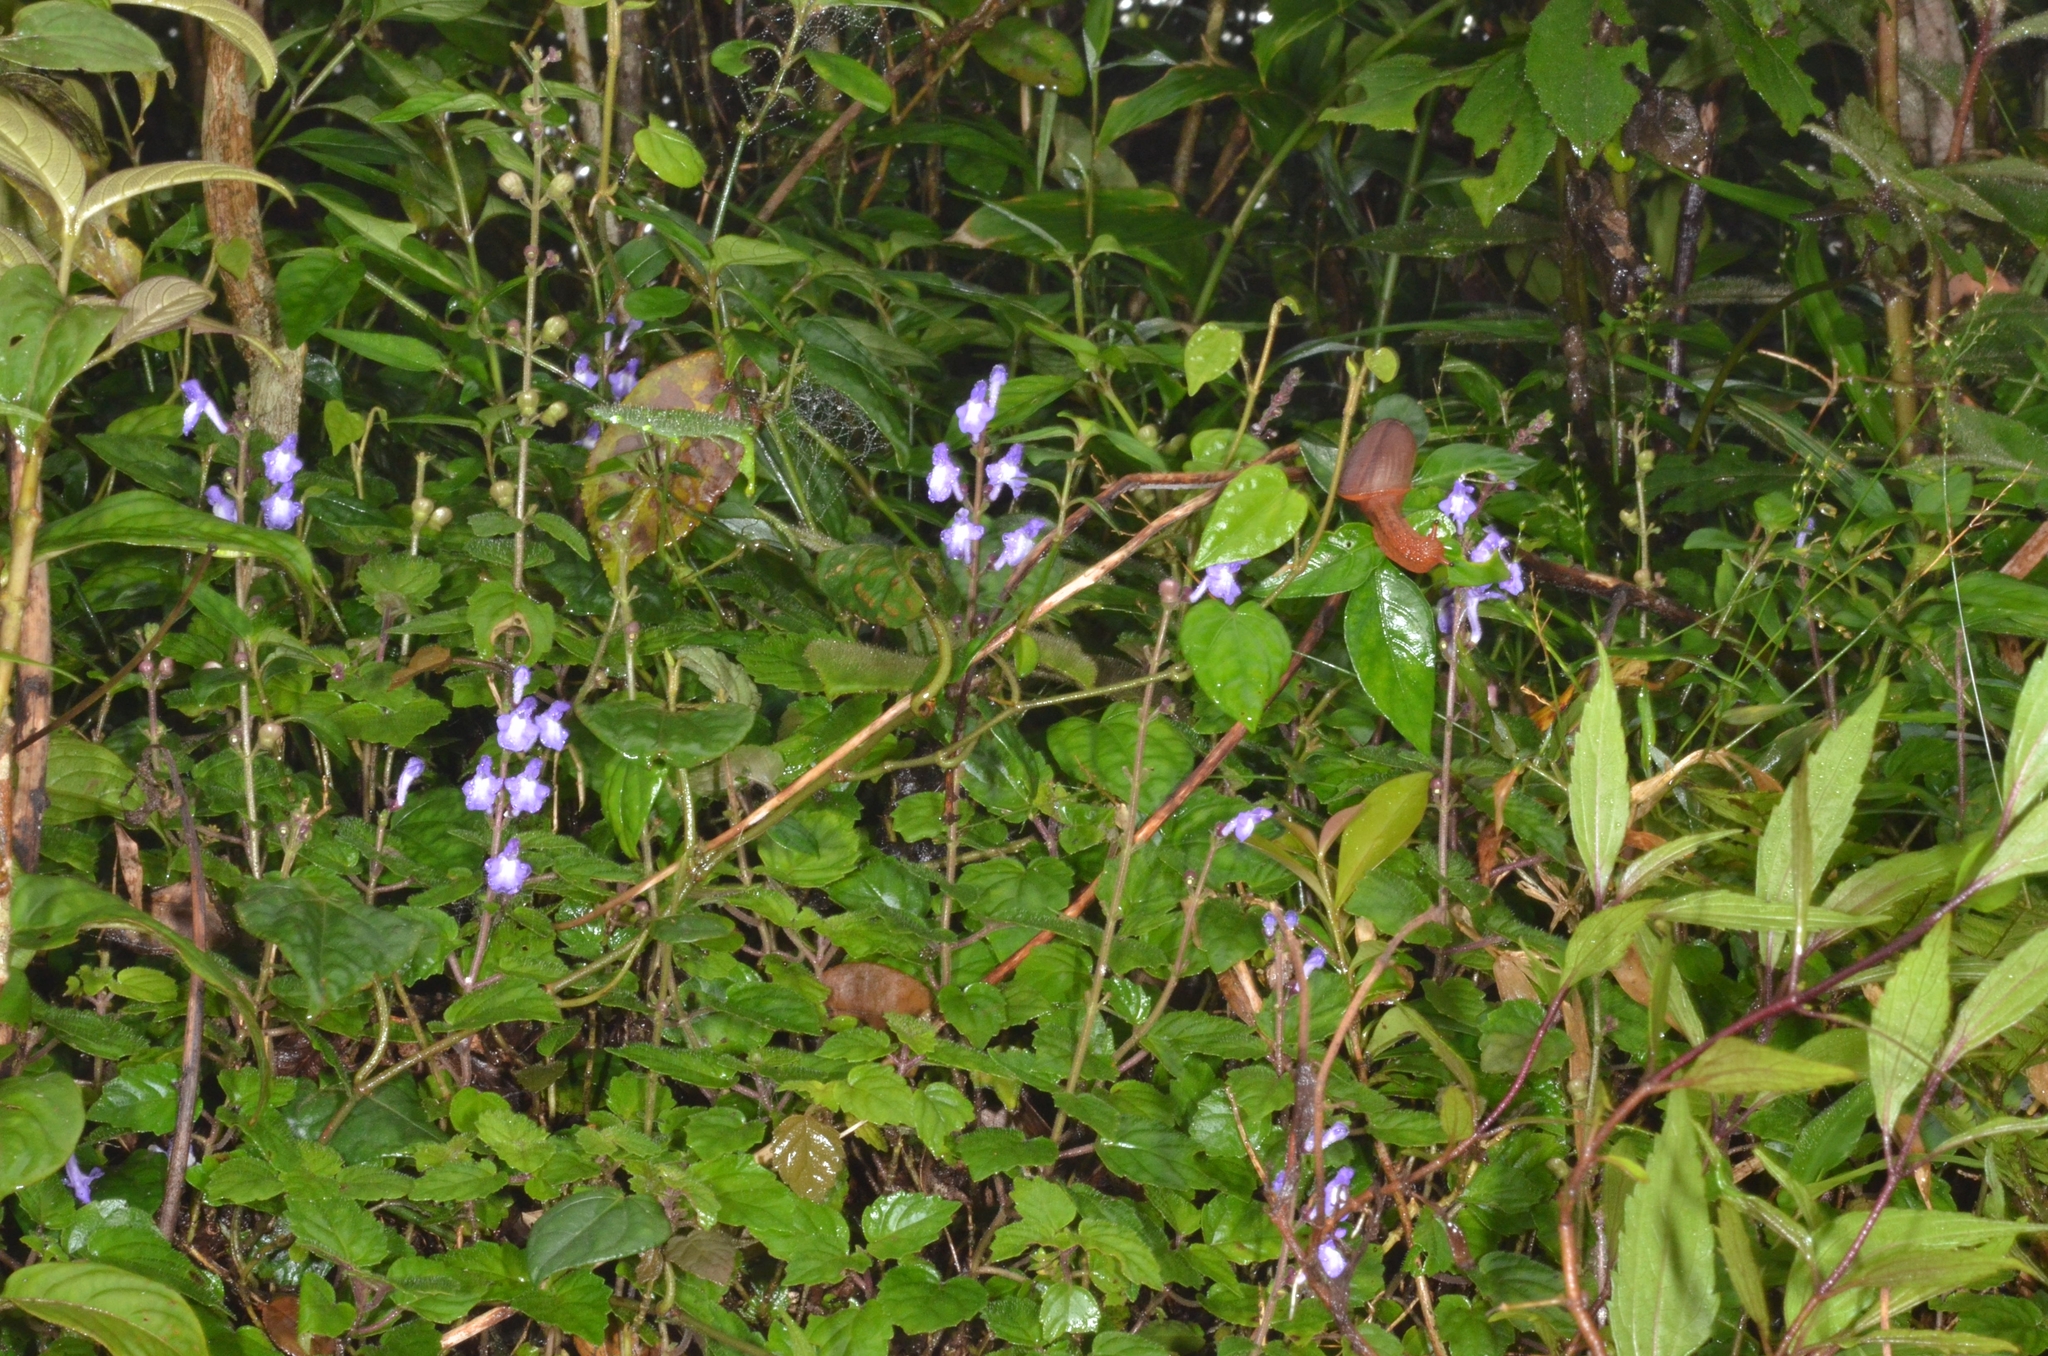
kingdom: Plantae
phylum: Tracheophyta
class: Magnoliopsida
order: Lamiales
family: Lamiaceae
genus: Scutellaria
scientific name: Scutellaria violacea
